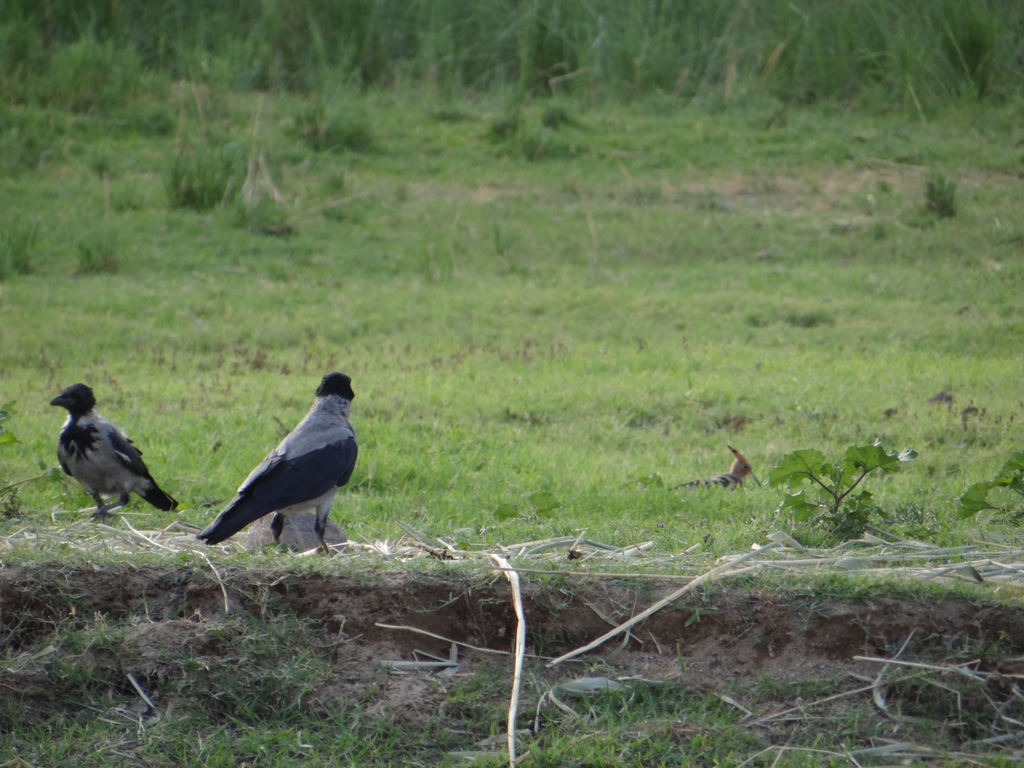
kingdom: Animalia
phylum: Chordata
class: Aves
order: Passeriformes
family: Corvidae
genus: Corvus
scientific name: Corvus cornix
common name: Hooded crow
